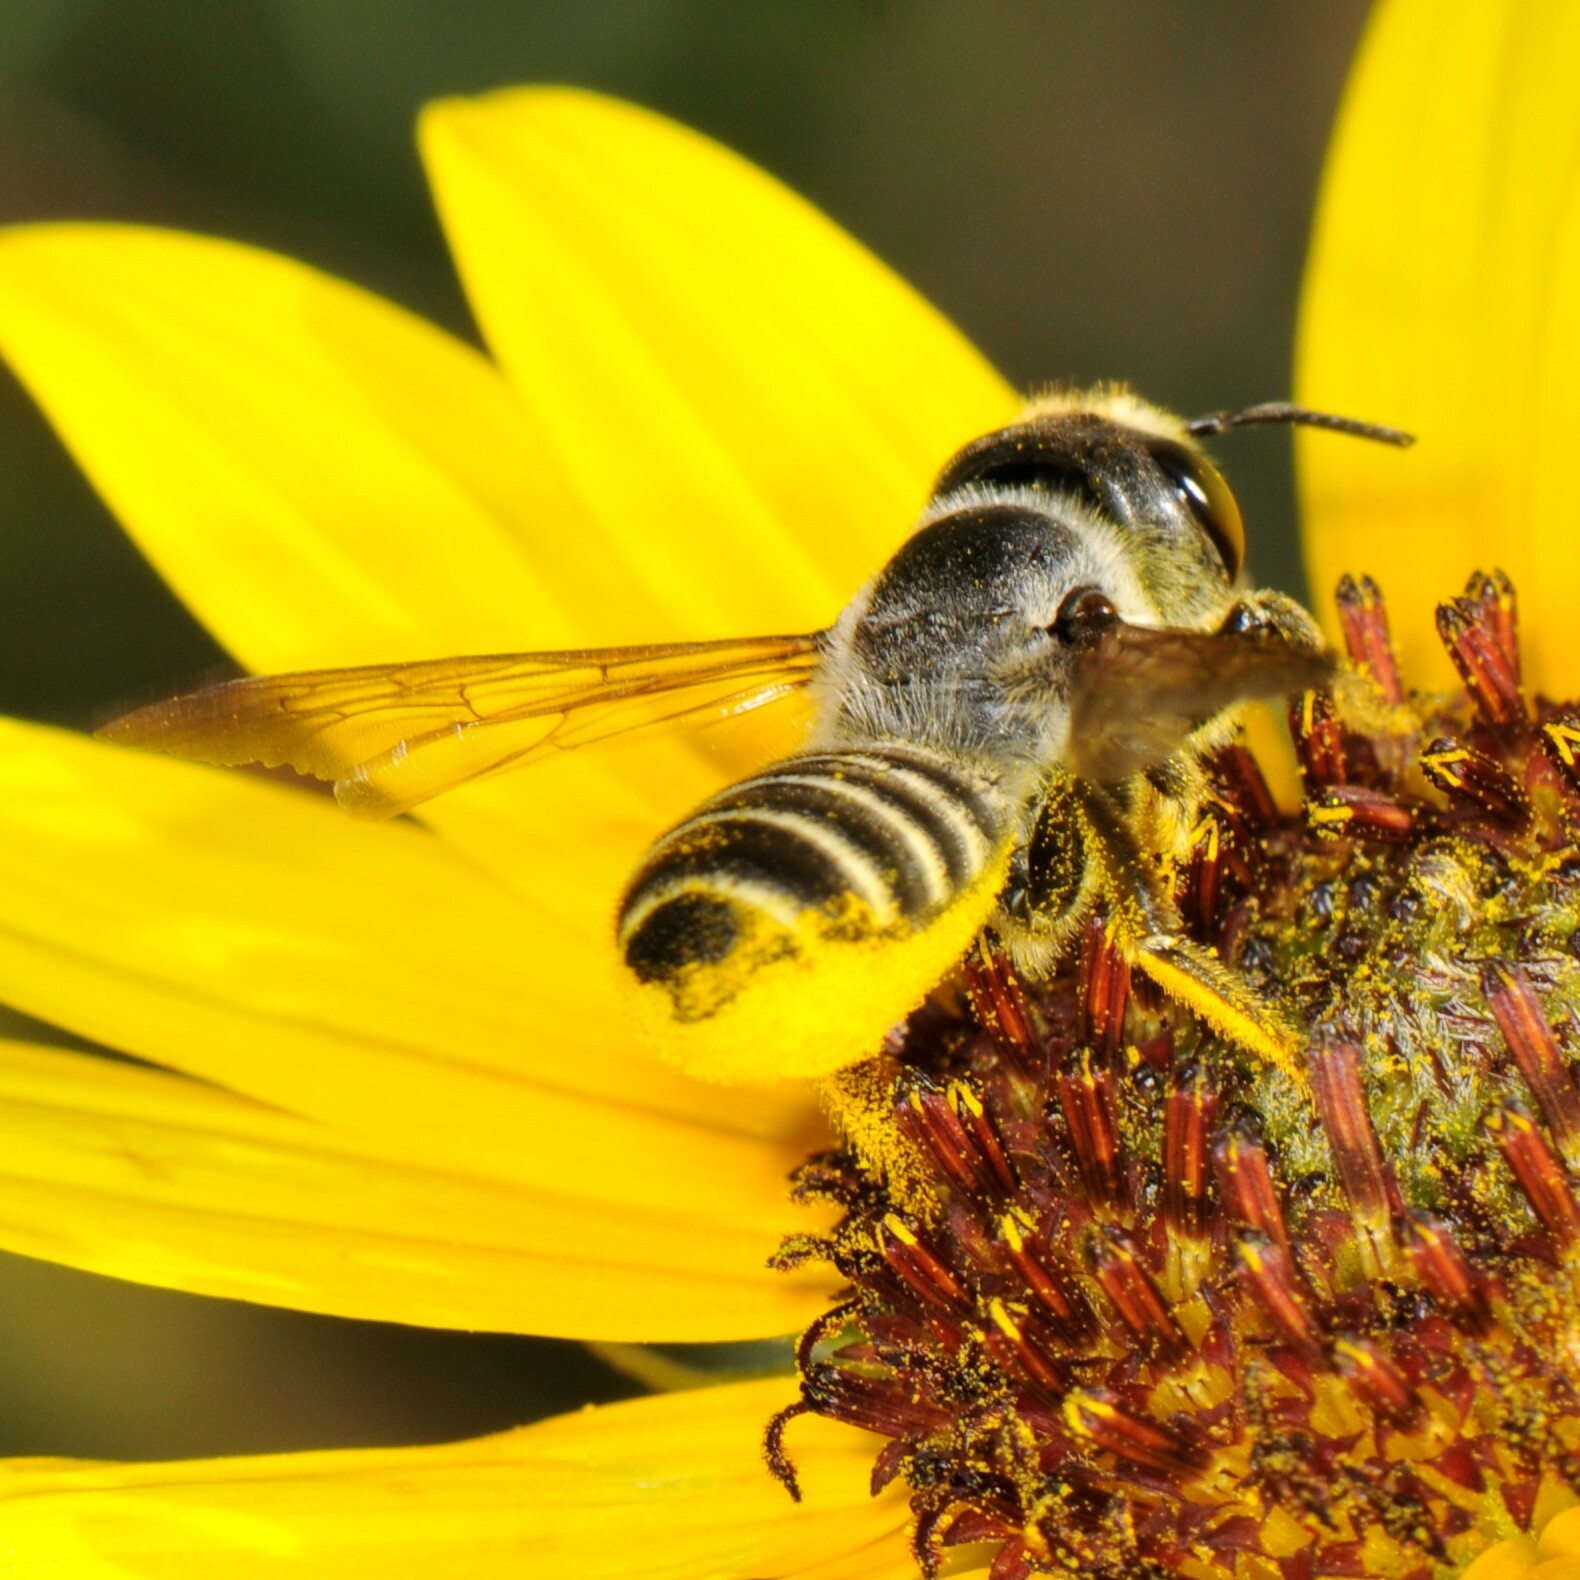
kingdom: Animalia
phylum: Arthropoda
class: Insecta
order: Hymenoptera
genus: Sayapis
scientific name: Sayapis
